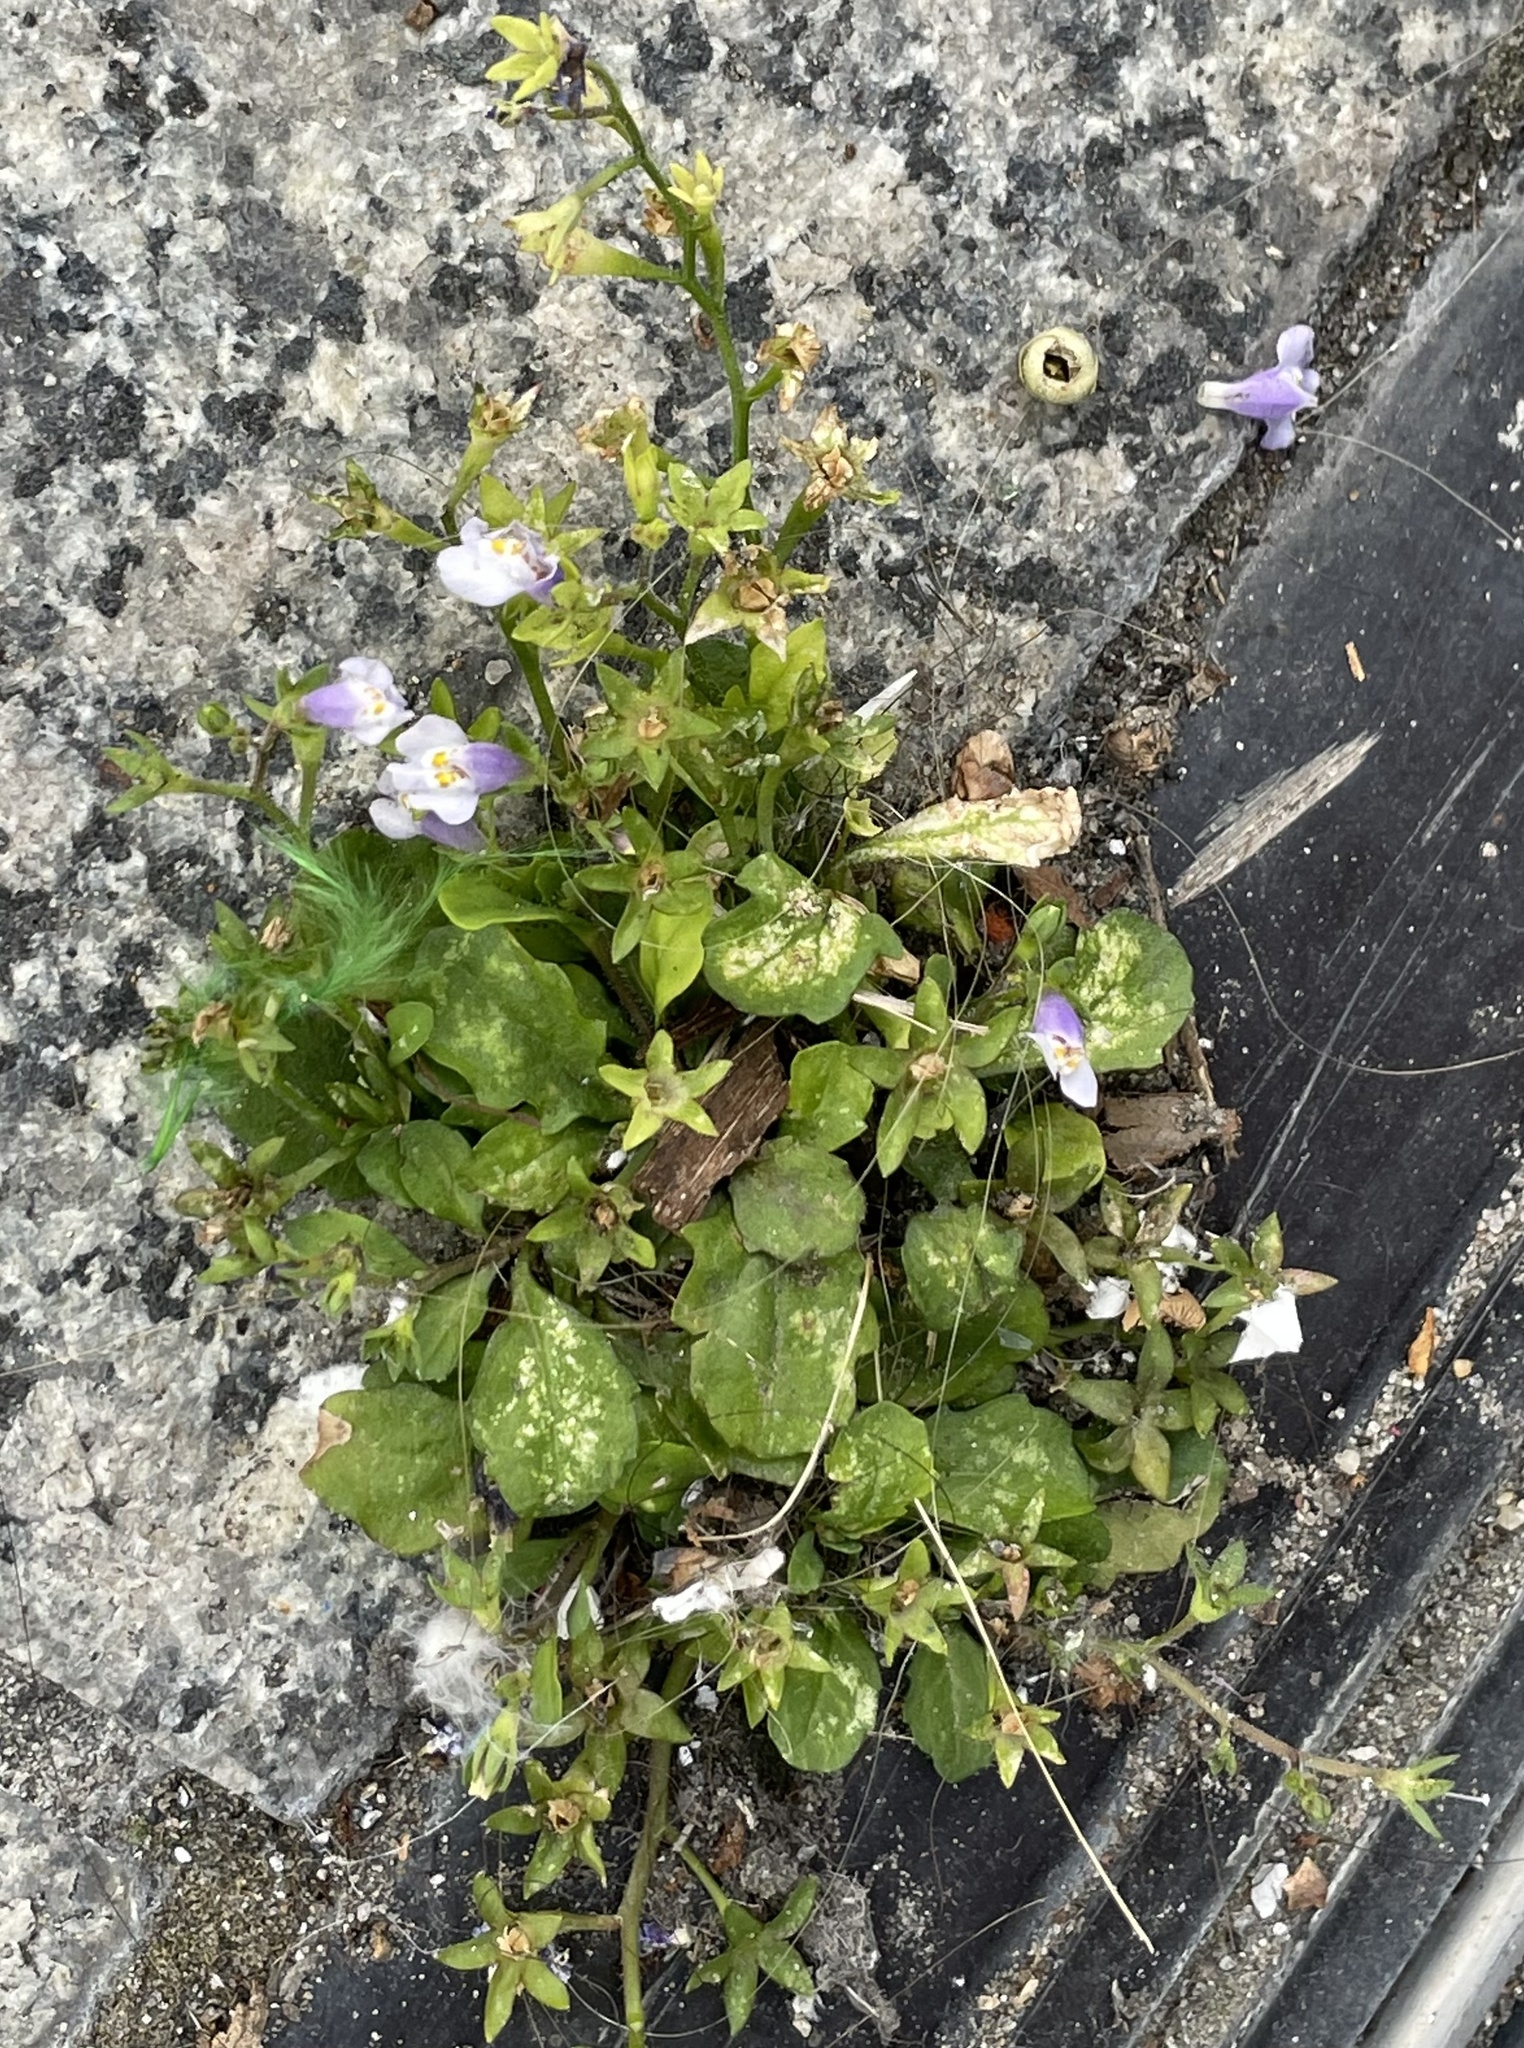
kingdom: Plantae
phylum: Tracheophyta
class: Magnoliopsida
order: Lamiales
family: Mazaceae
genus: Mazus
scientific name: Mazus pumilus
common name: Japanese mazus
